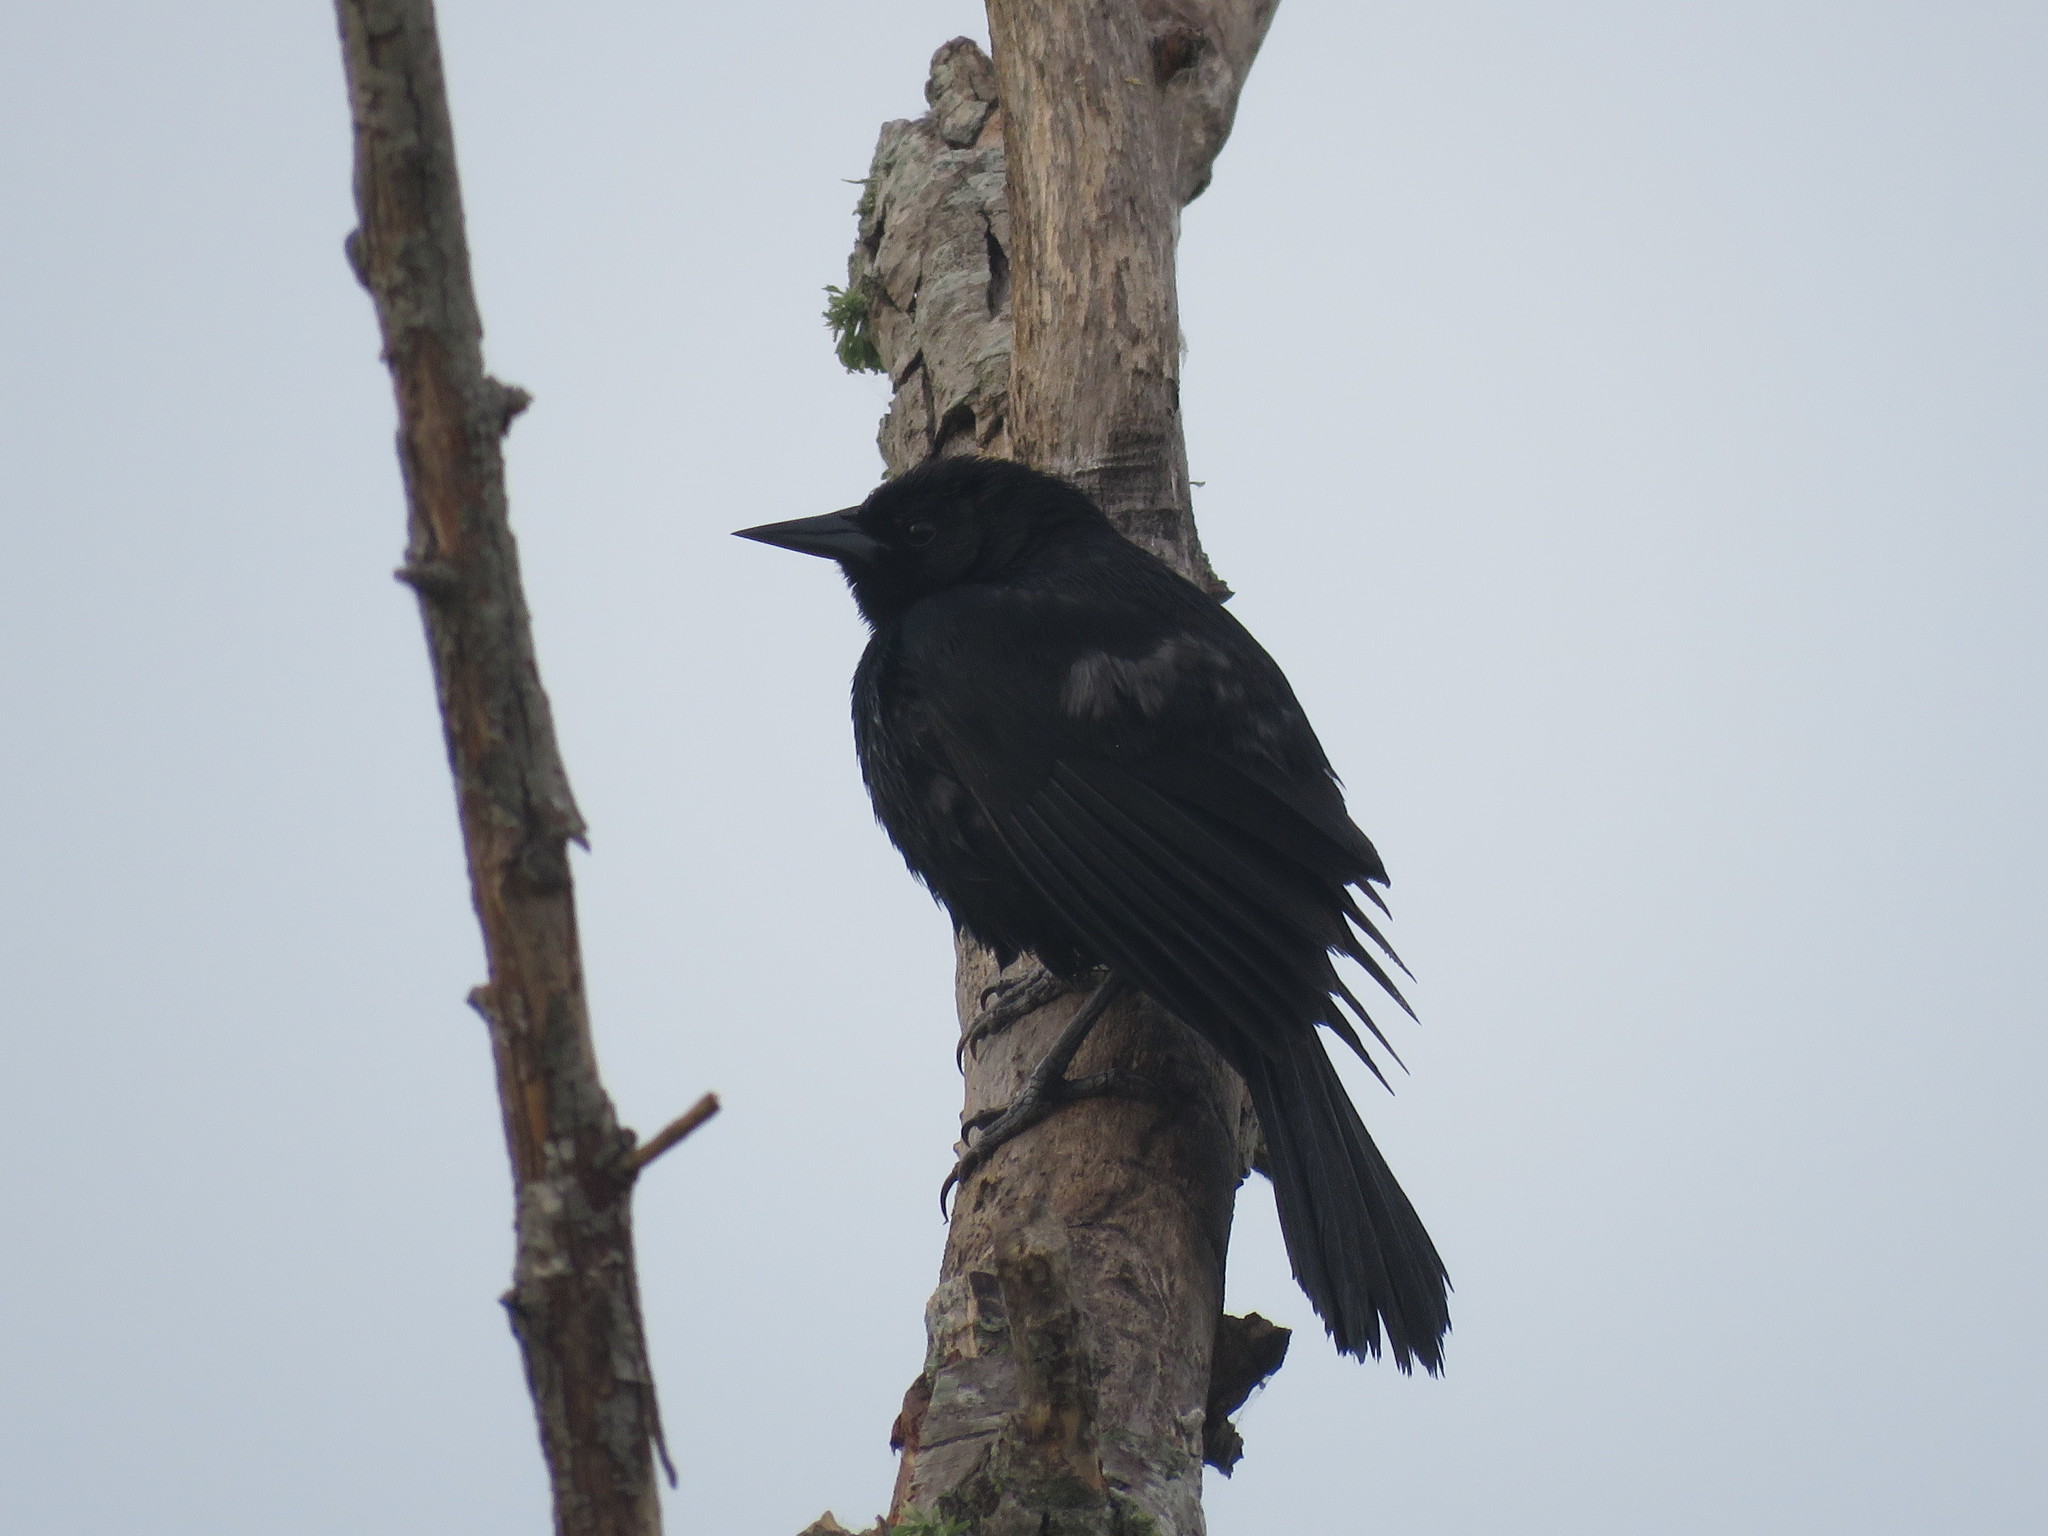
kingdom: Animalia
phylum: Chordata
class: Aves
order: Passeriformes
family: Icteridae
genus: Agelasticus
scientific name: Agelasticus cyanopus
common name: Unicolored blackbird
